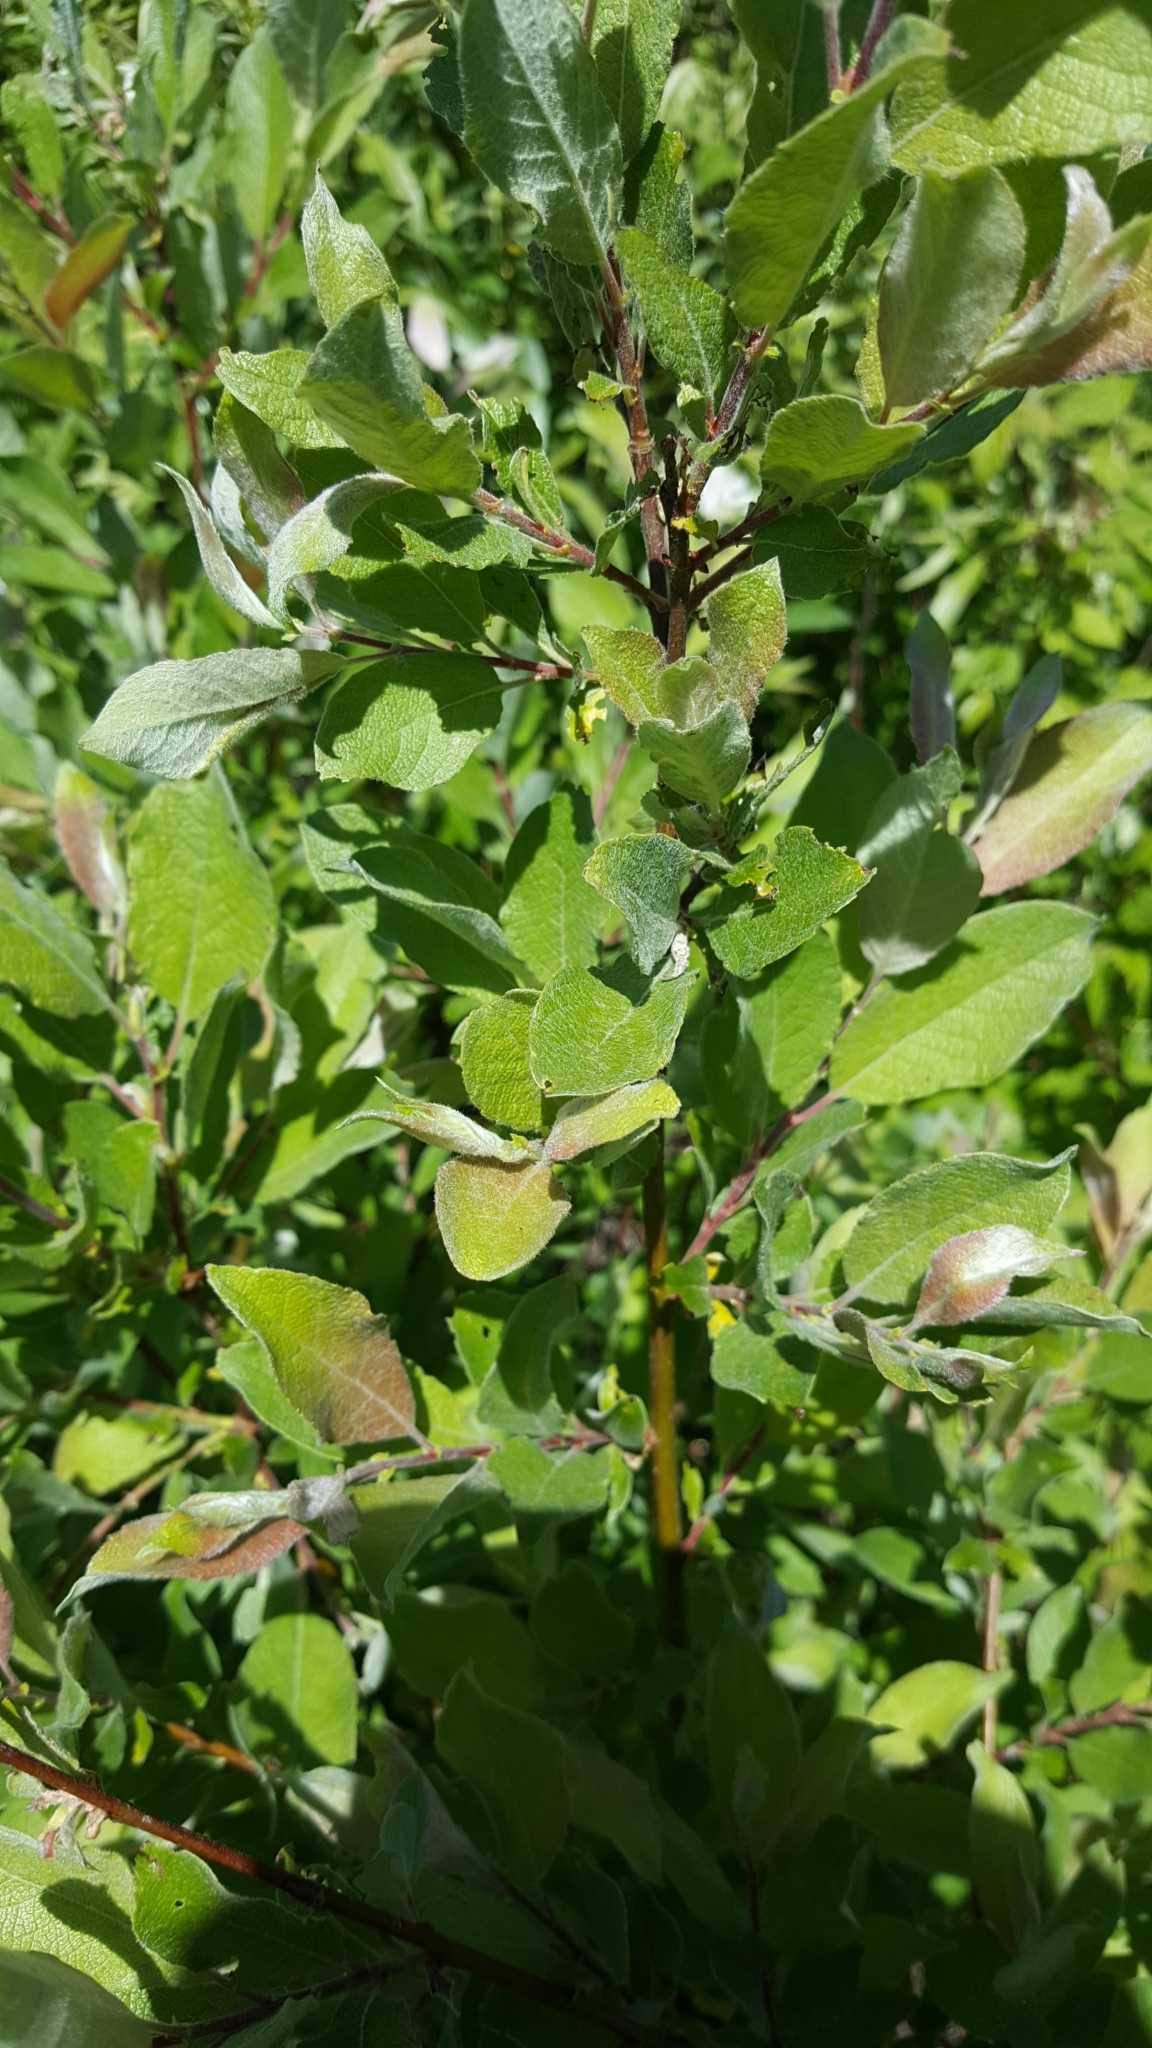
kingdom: Plantae
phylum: Tracheophyta
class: Magnoliopsida
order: Malpighiales
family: Salicaceae
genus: Salix
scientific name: Salix bebbiana
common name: Bebb's willow
